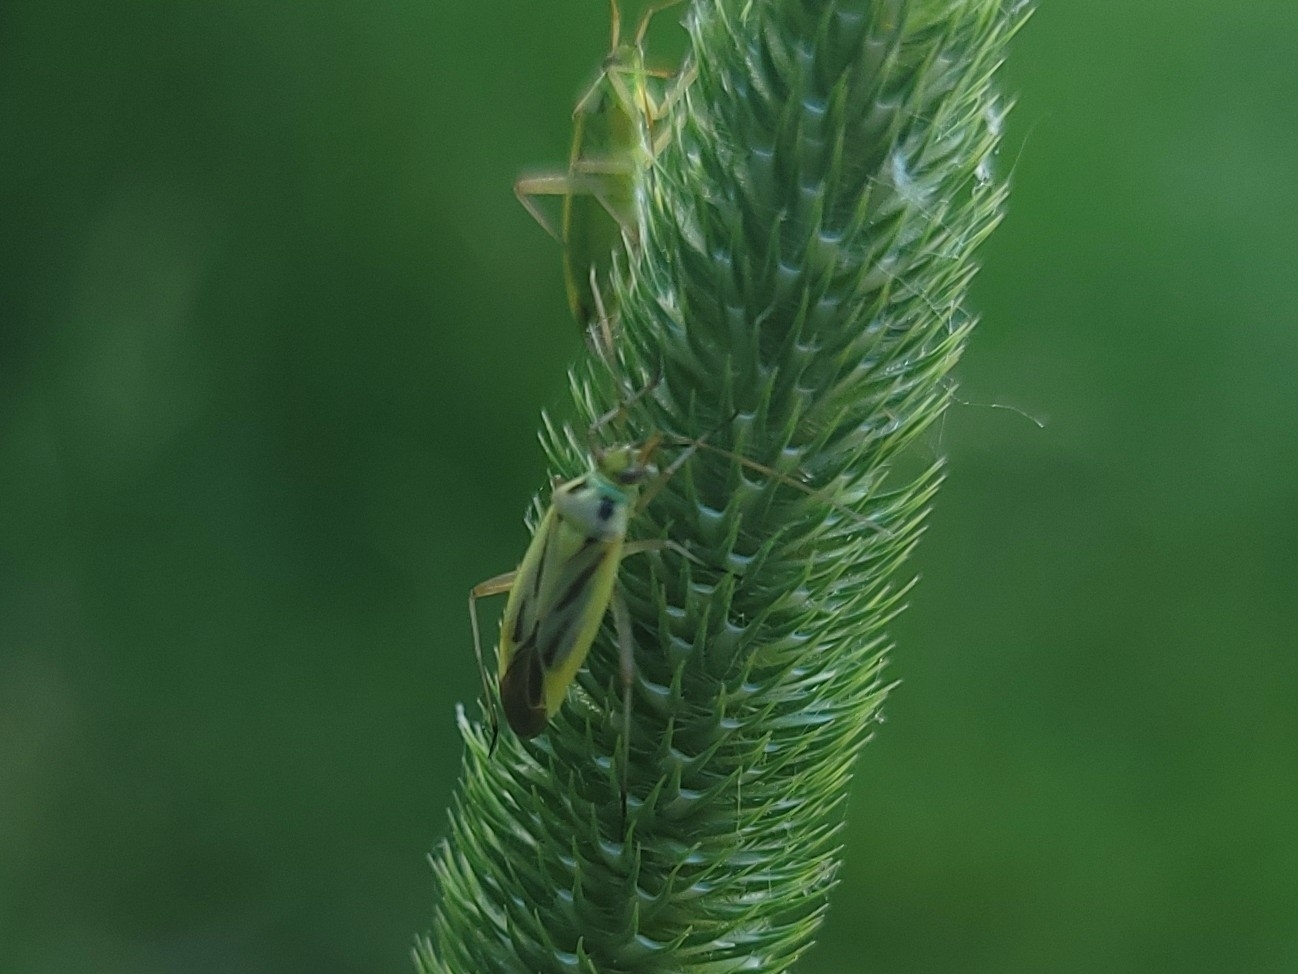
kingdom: Animalia
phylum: Arthropoda
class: Insecta
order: Hemiptera
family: Miridae
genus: Stenotus
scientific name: Stenotus binotatus
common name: Plant bug
